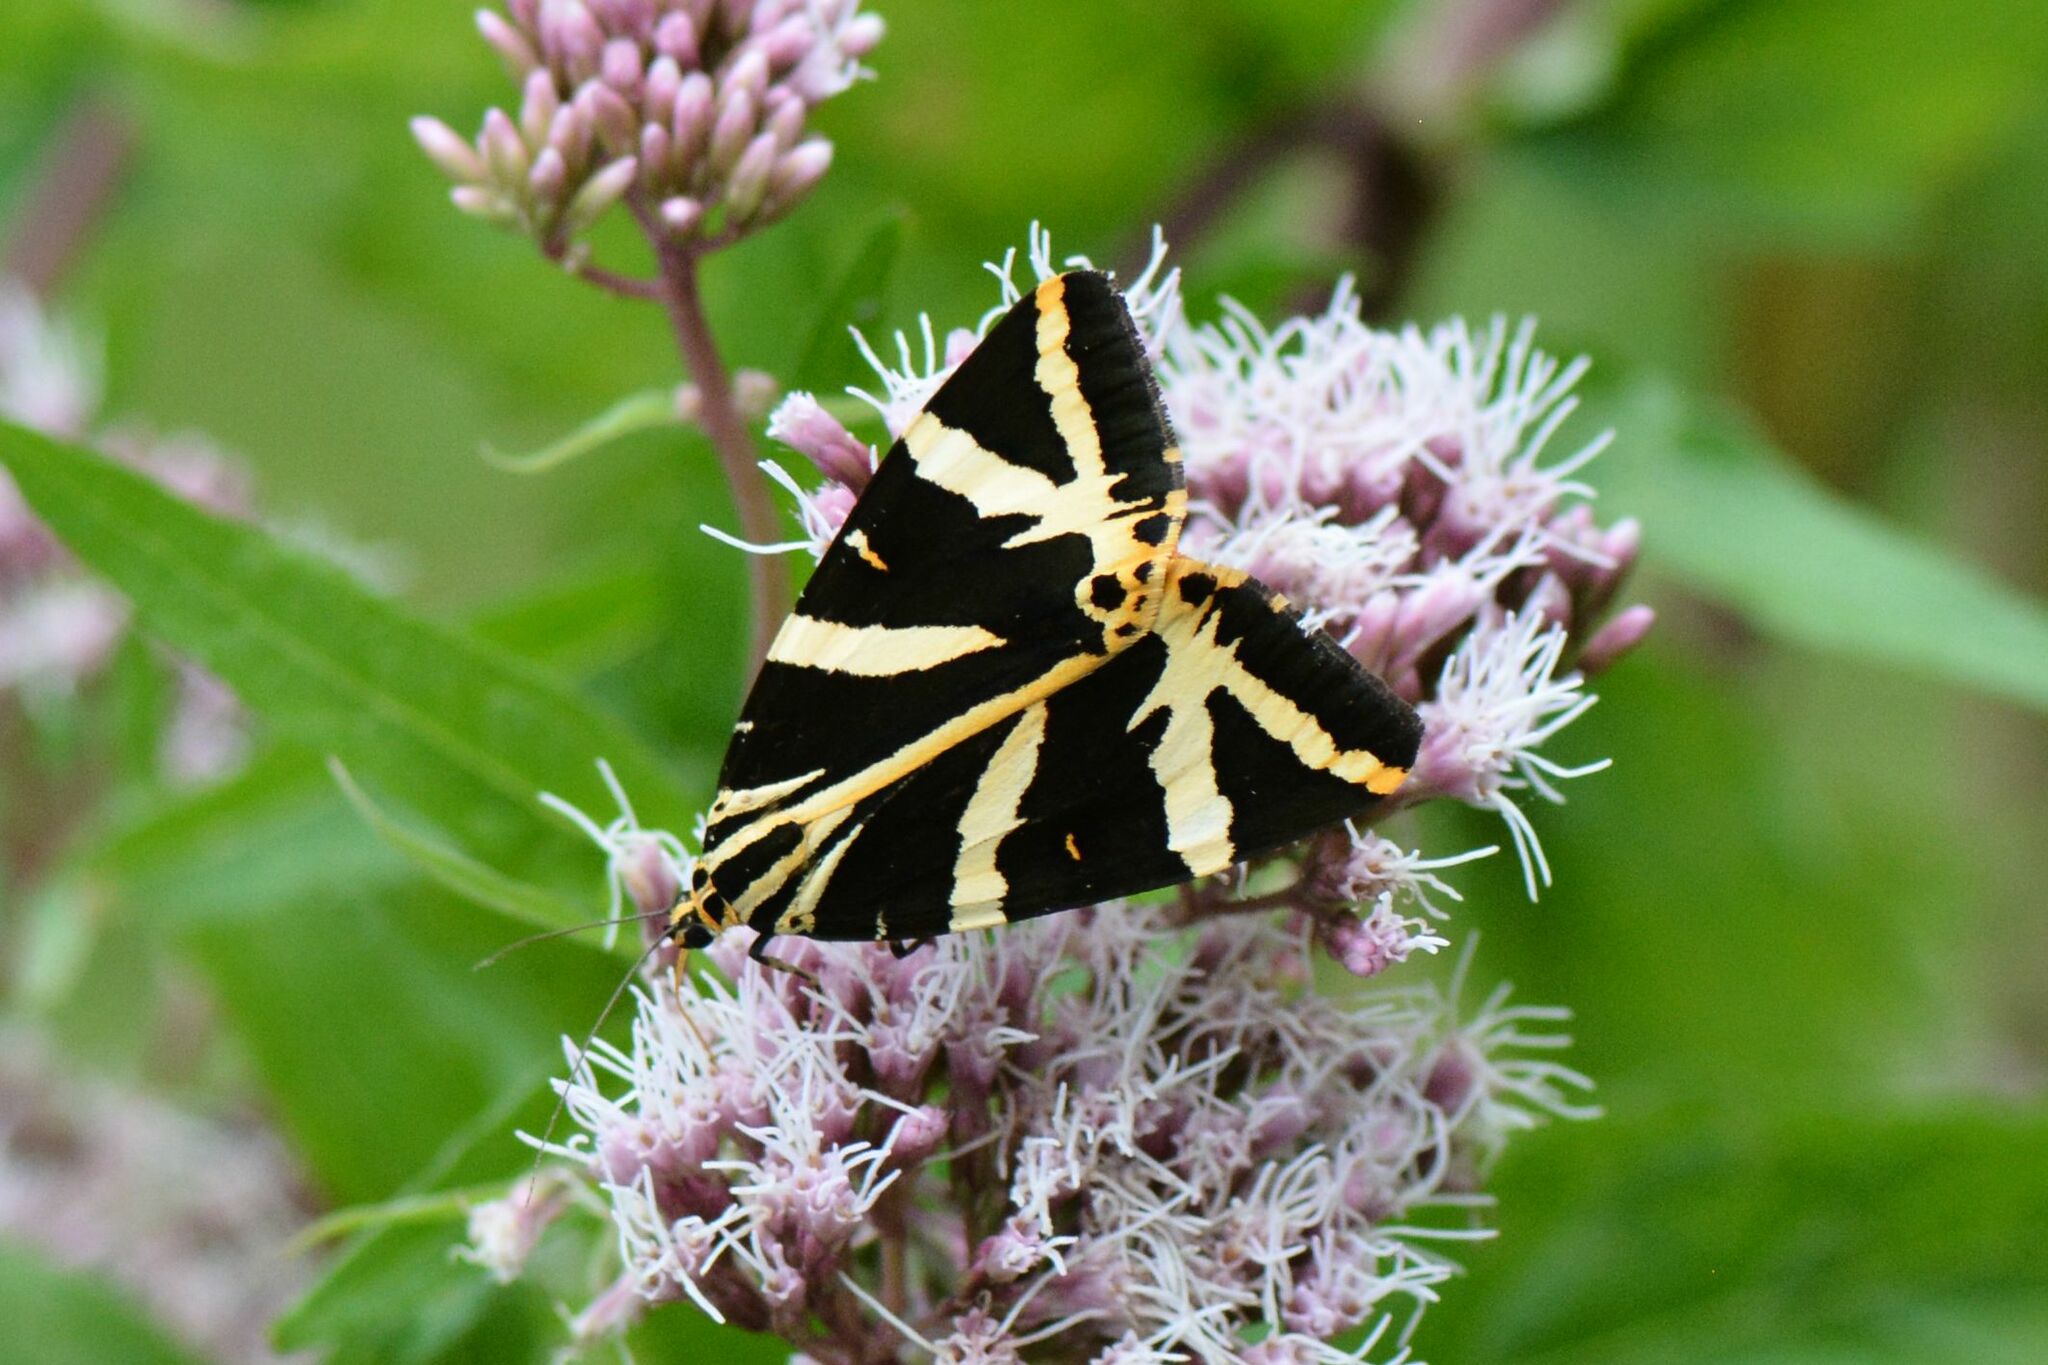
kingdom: Animalia
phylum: Arthropoda
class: Insecta
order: Lepidoptera
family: Erebidae
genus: Euplagia
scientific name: Euplagia quadripunctaria
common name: Jersey tiger
